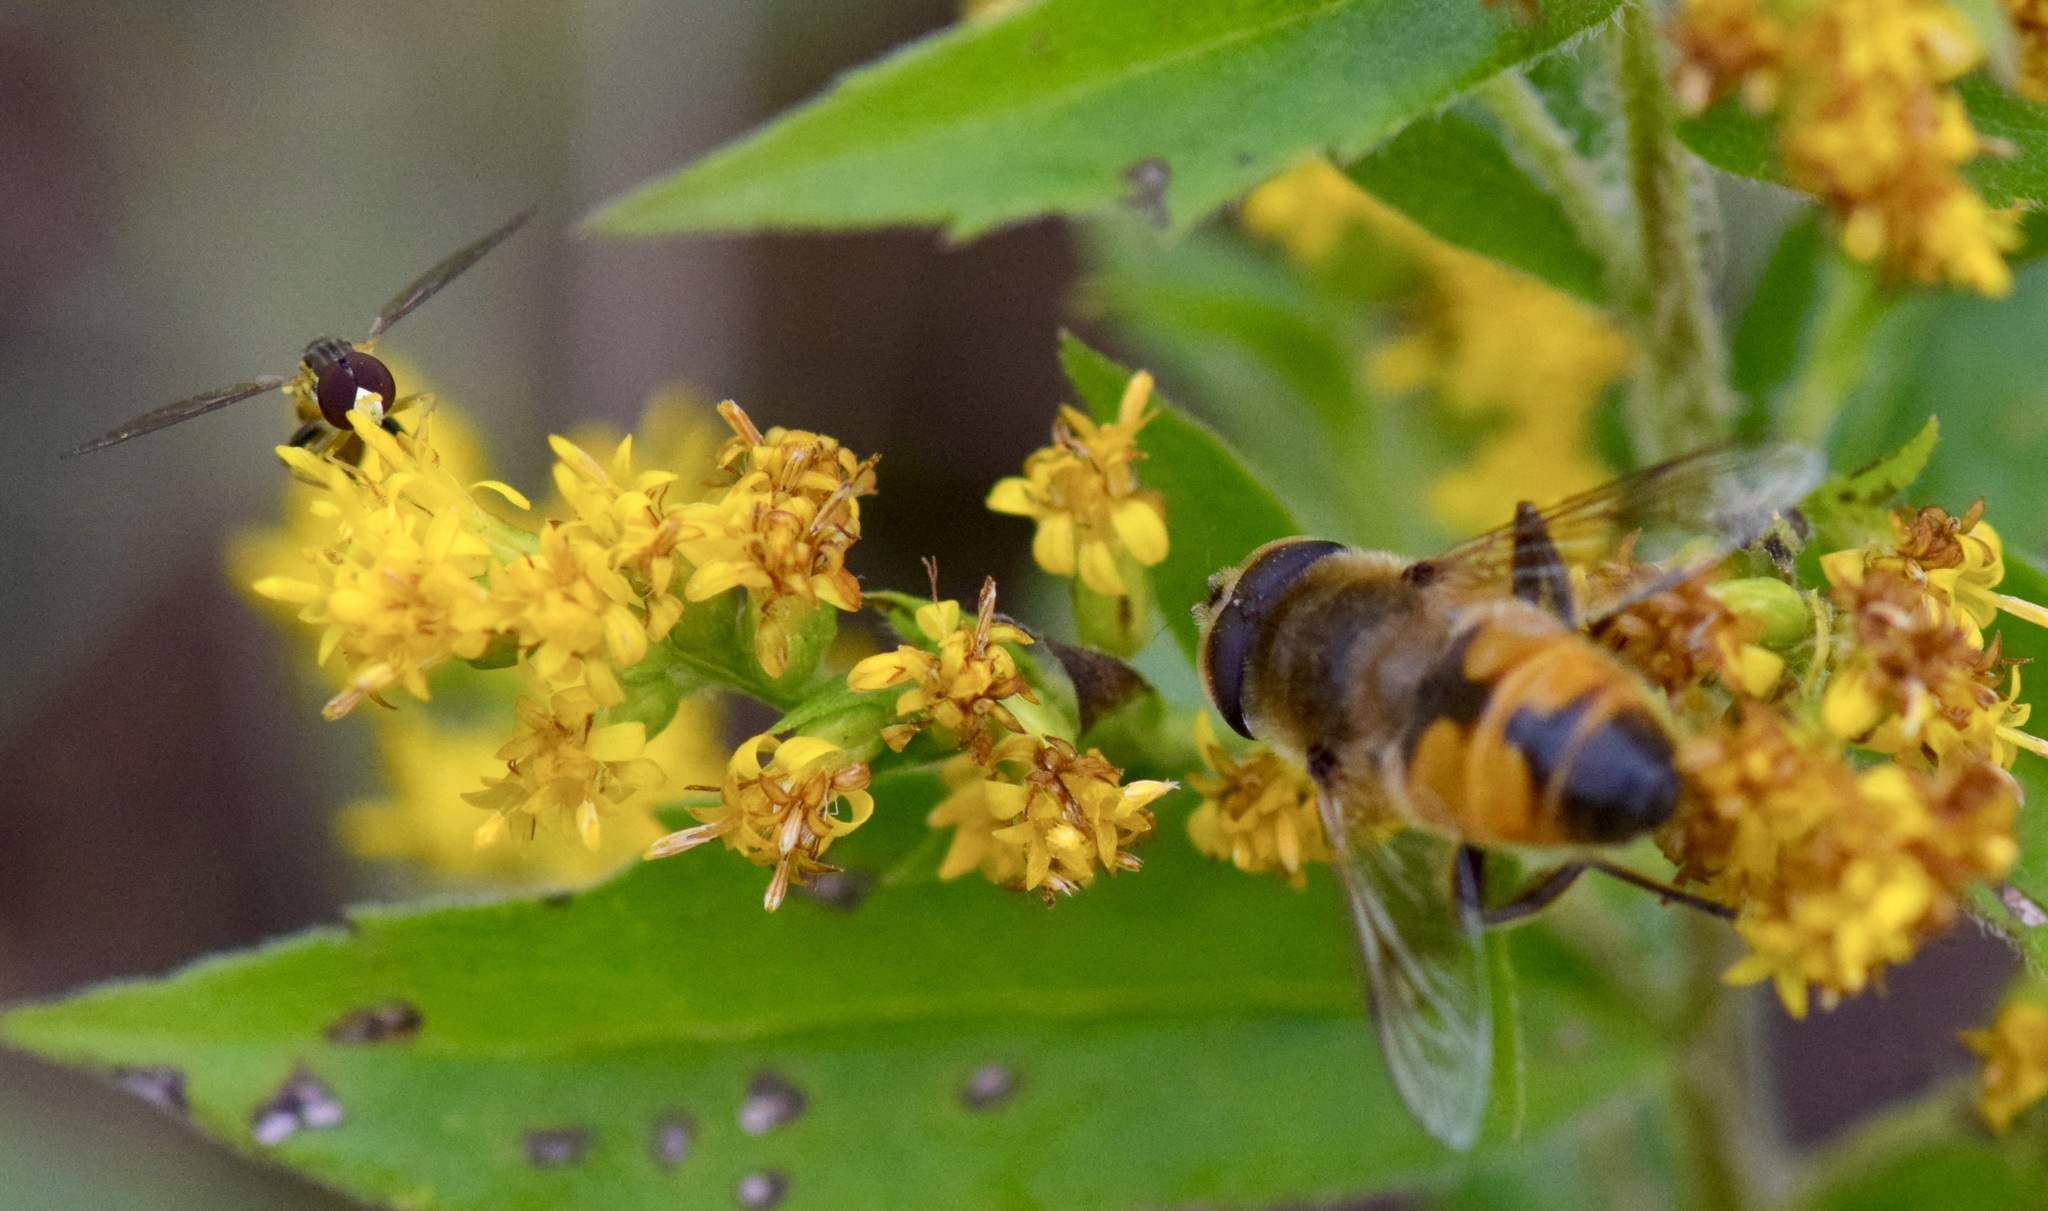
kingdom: Animalia
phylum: Arthropoda
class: Insecta
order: Diptera
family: Syrphidae
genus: Eristalis
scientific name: Eristalis tenax
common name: Drone fly
